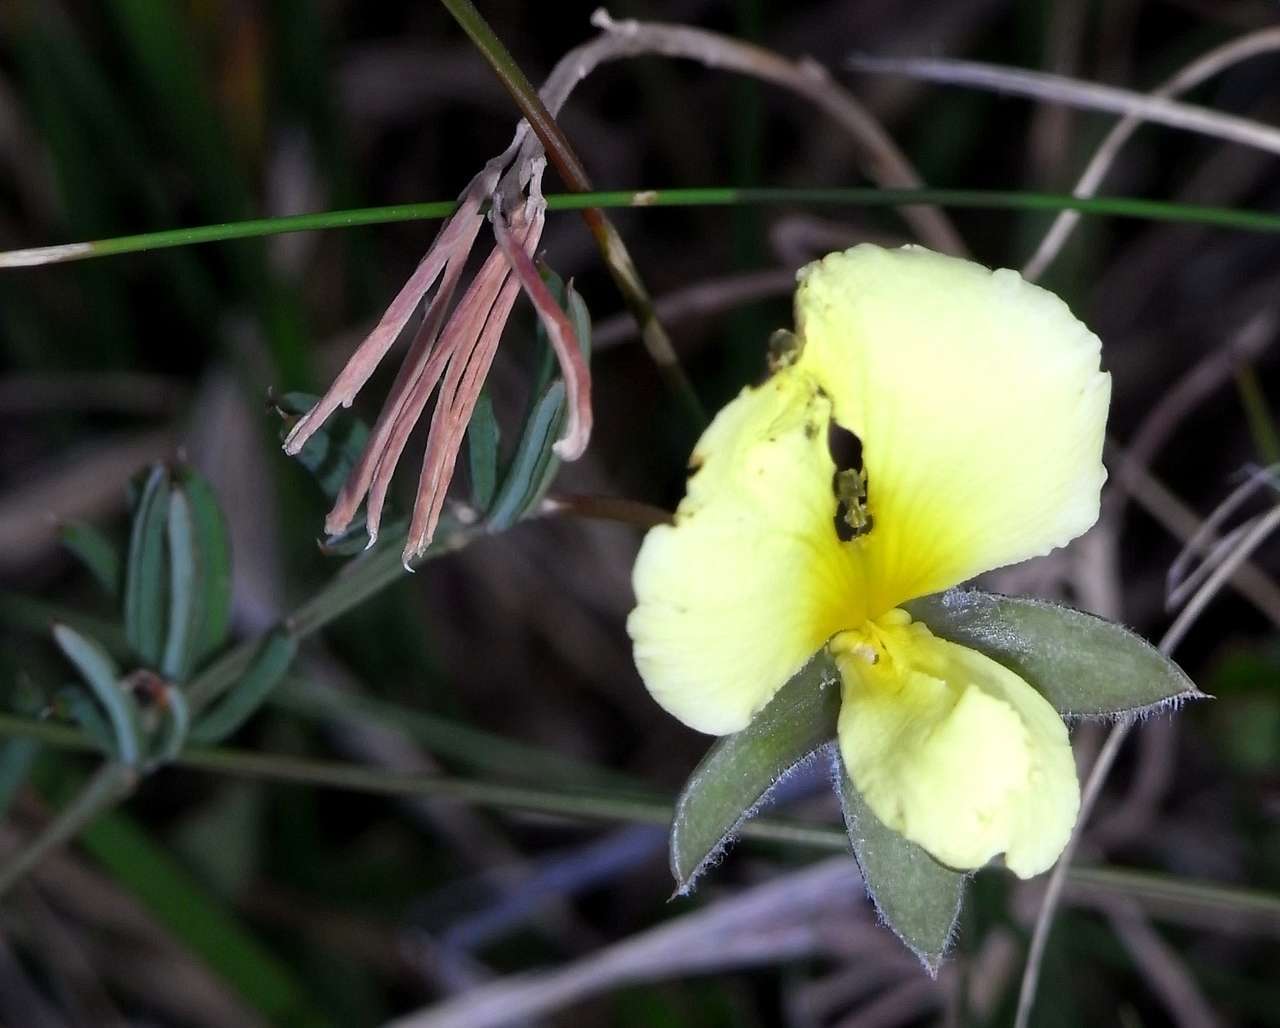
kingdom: Plantae
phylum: Tracheophyta
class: Magnoliopsida
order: Fabales
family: Fabaceae
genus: Gompholobium
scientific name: Gompholobium huegelii
